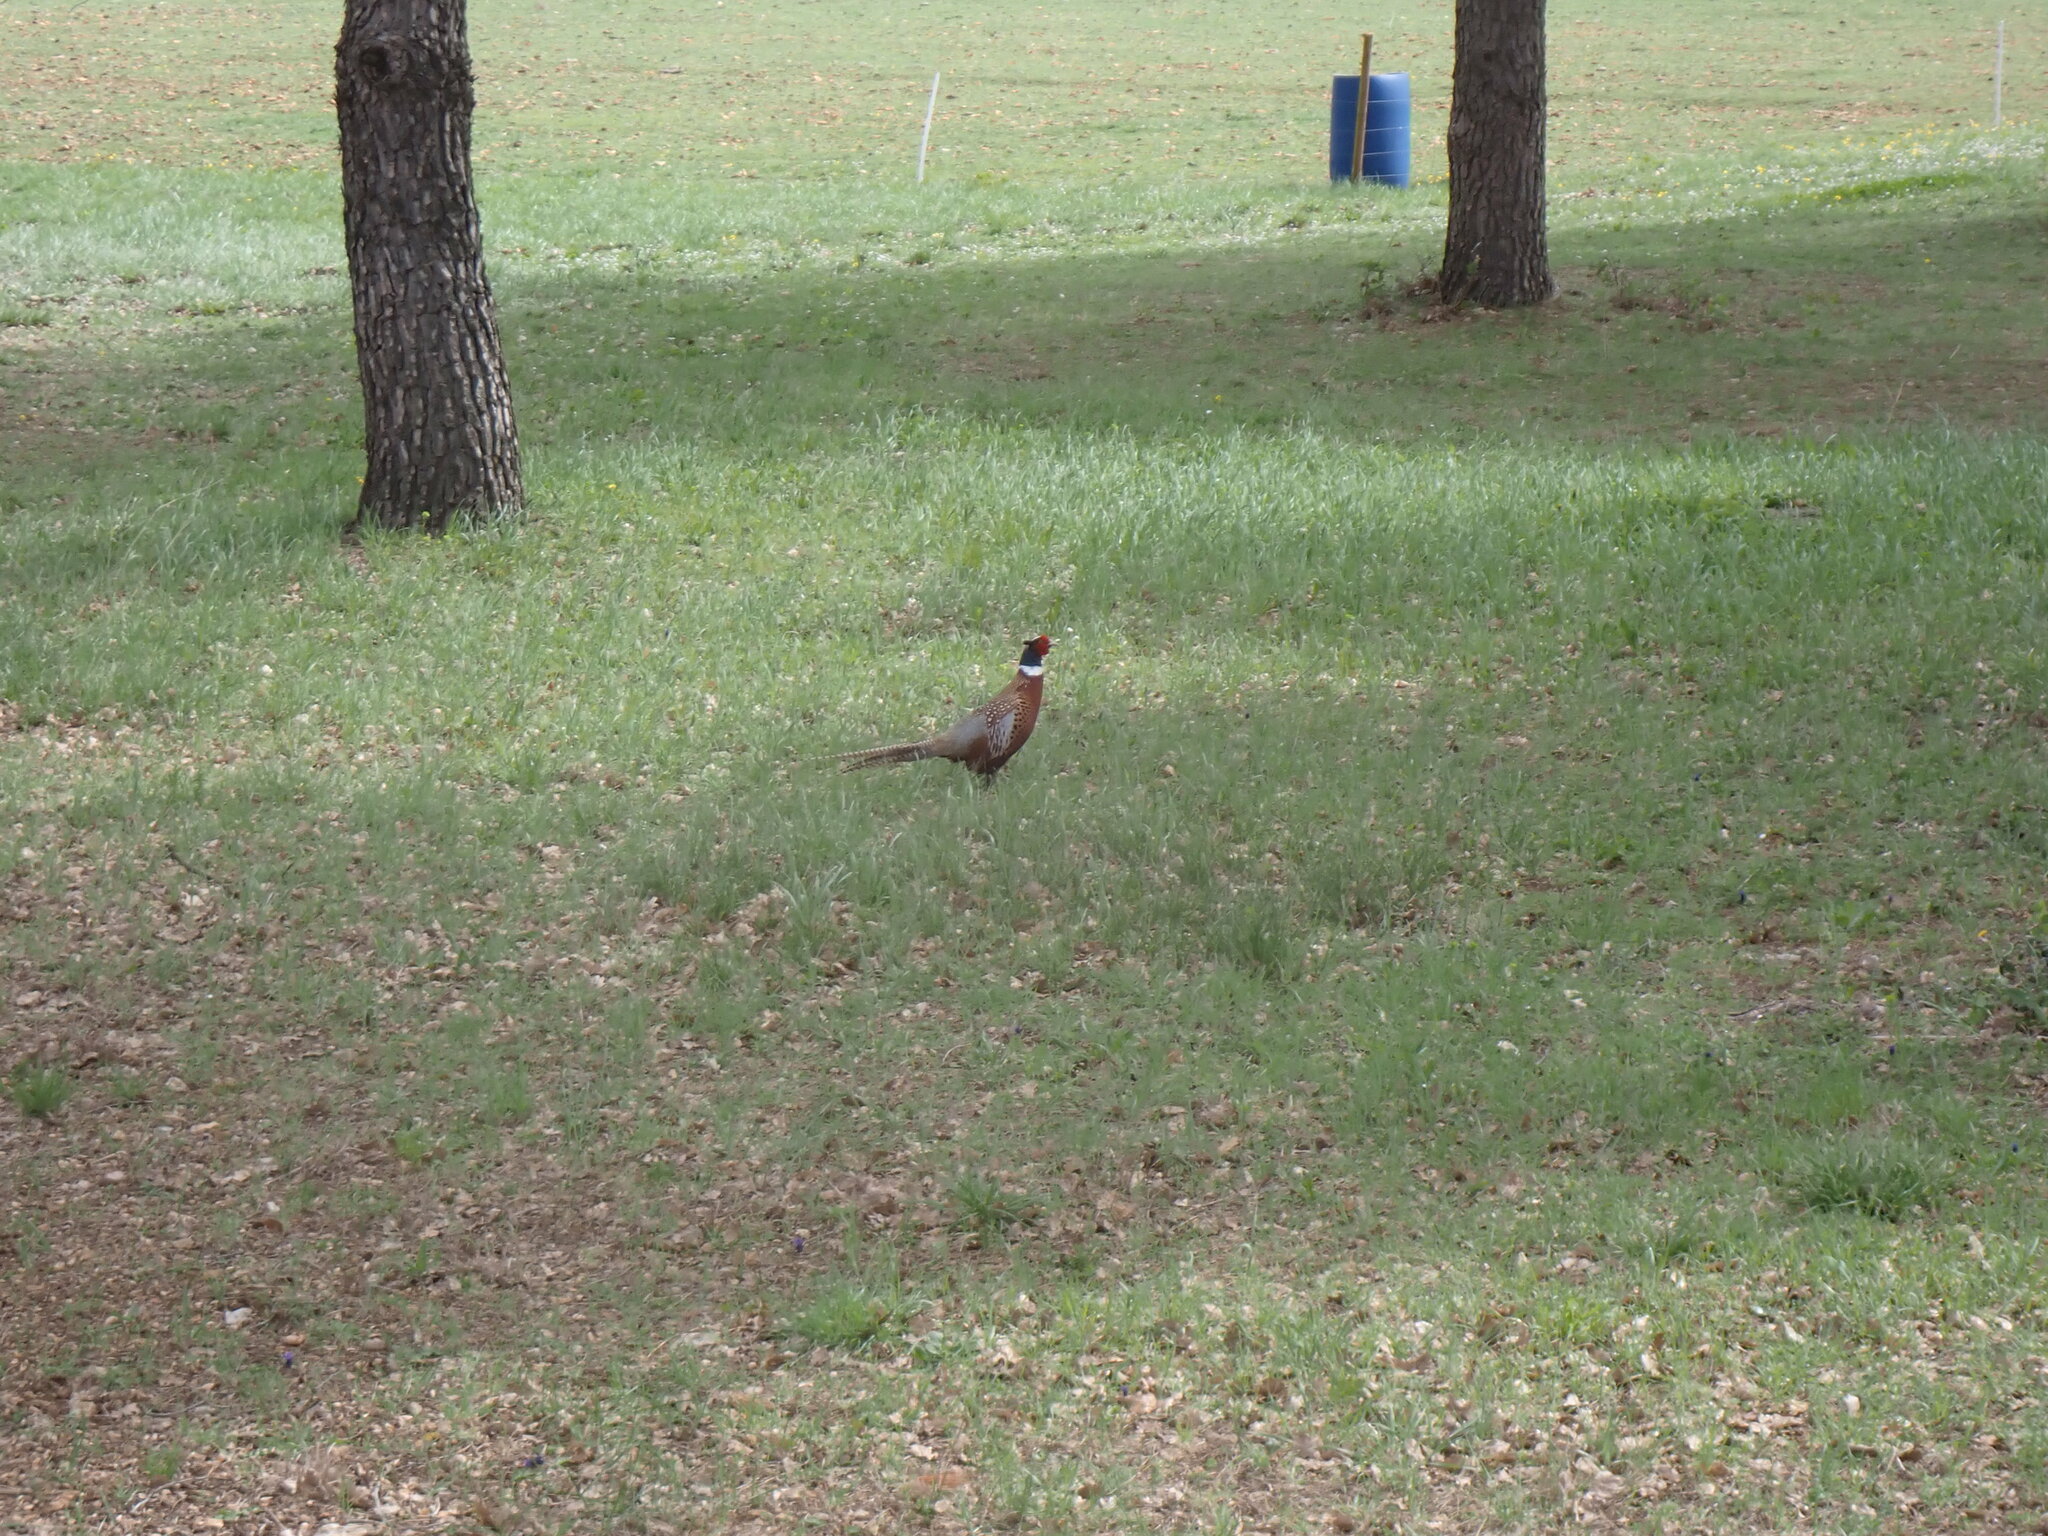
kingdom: Animalia
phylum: Chordata
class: Aves
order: Galliformes
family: Phasianidae
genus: Phasianus
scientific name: Phasianus colchicus
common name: Common pheasant
